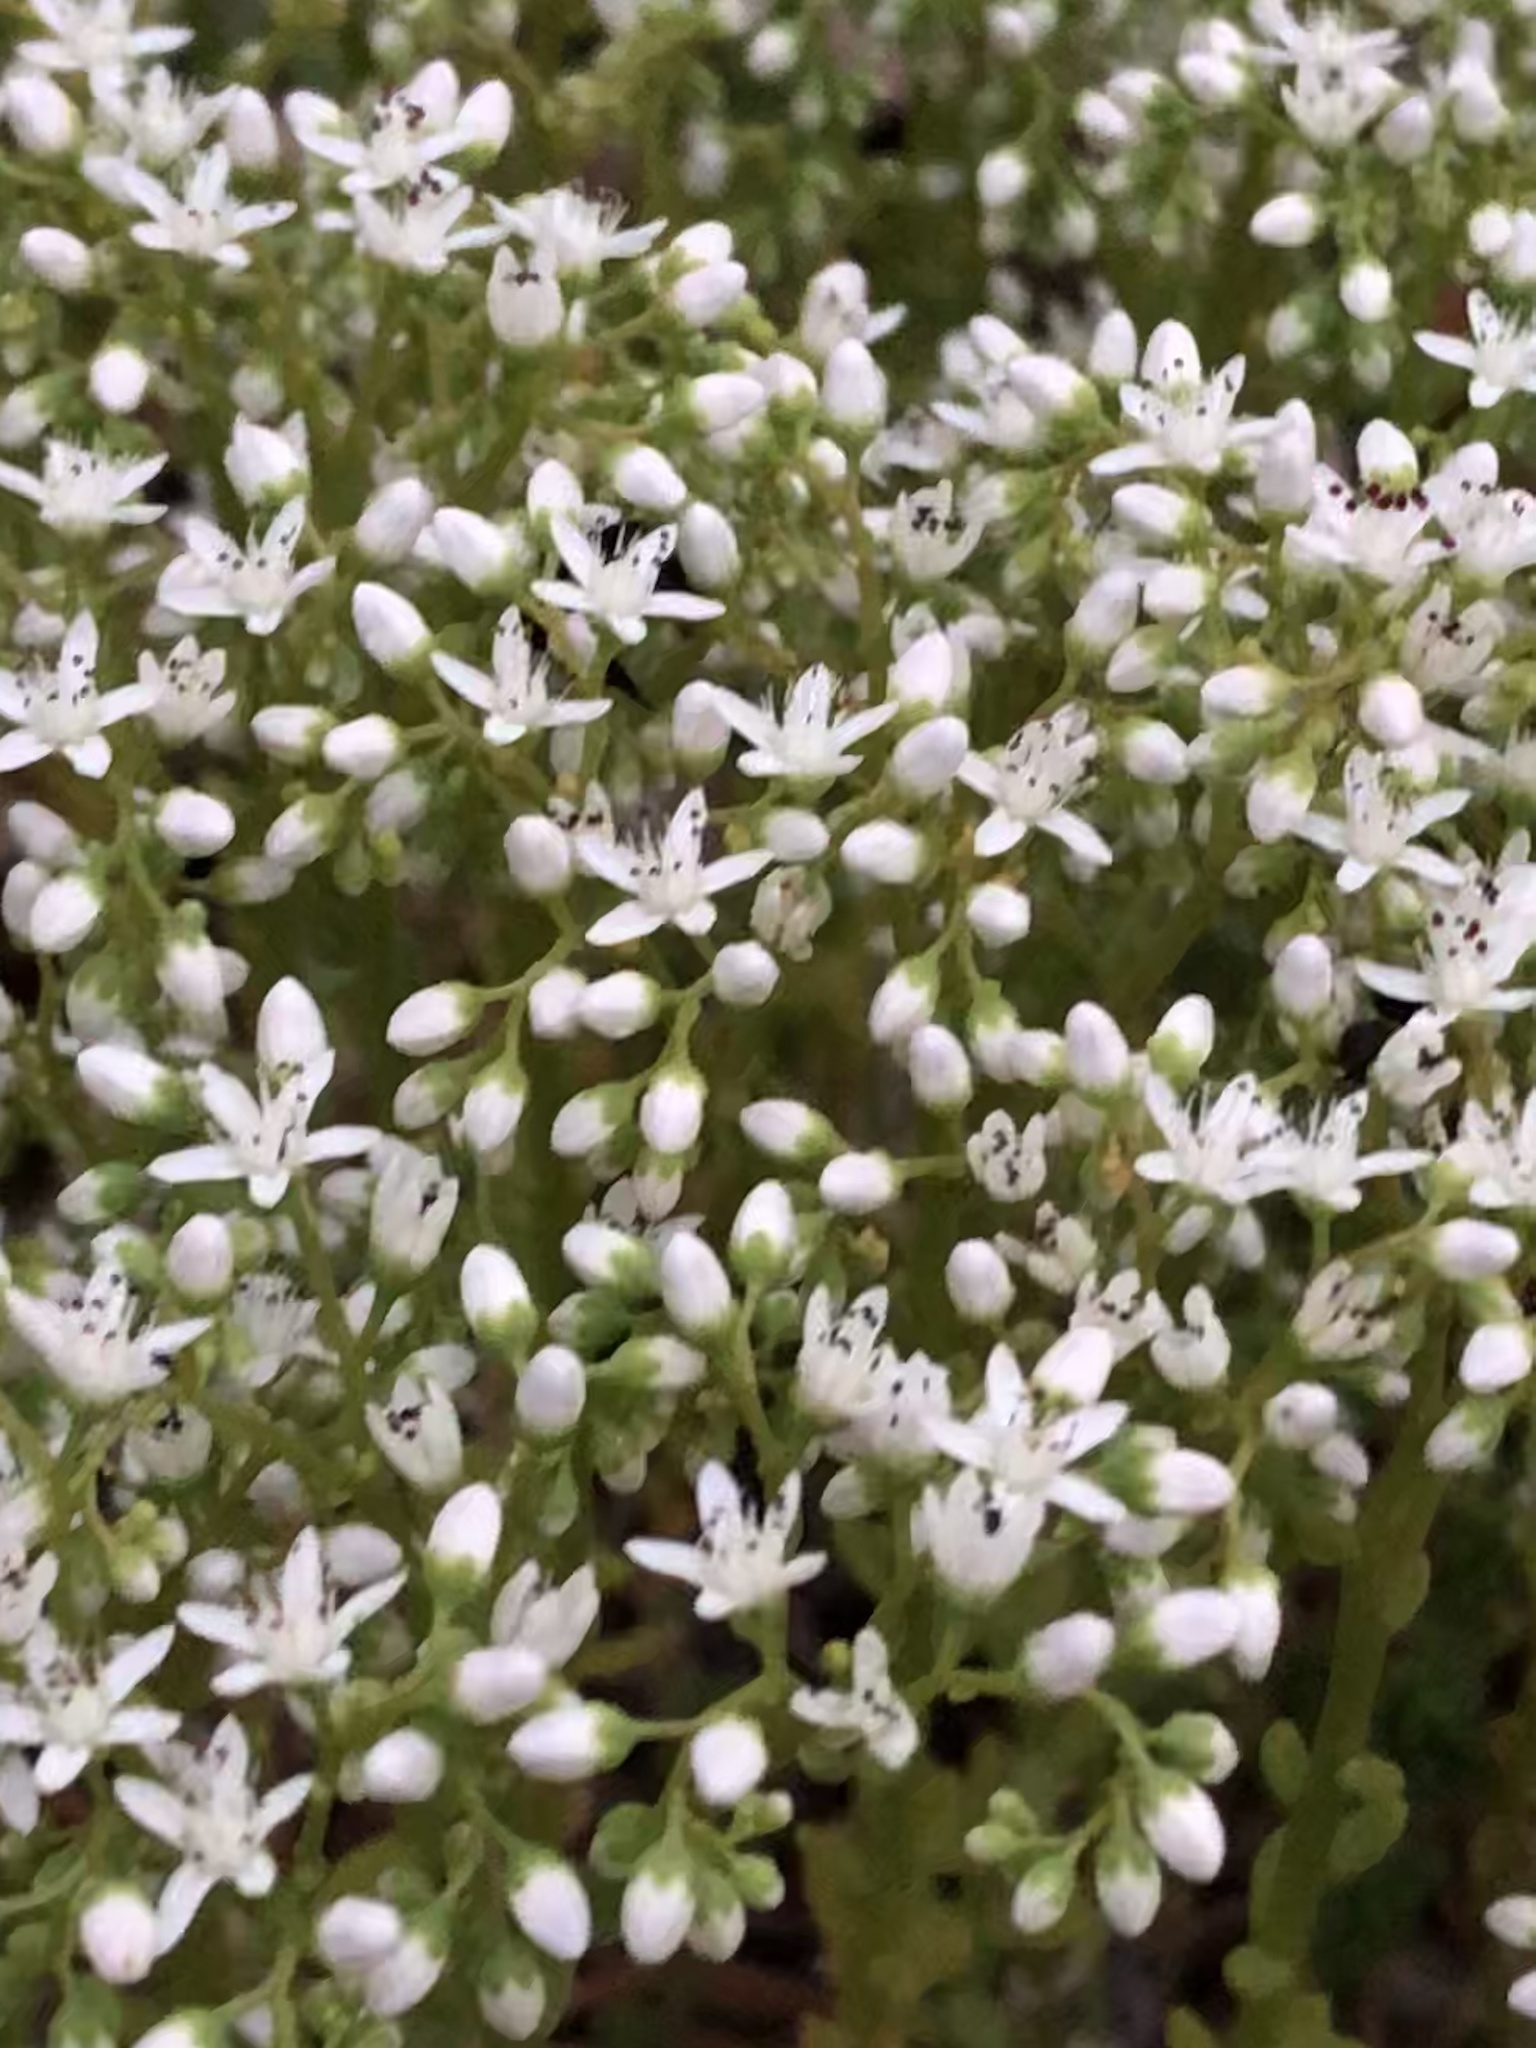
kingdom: Plantae
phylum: Tracheophyta
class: Magnoliopsida
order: Saxifragales
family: Crassulaceae
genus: Sedum
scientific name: Sedum album
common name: White stonecrop
